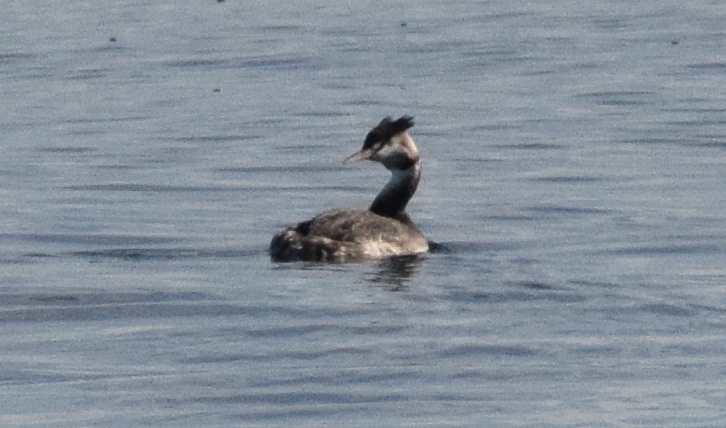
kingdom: Animalia
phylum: Chordata
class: Aves
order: Podicipediformes
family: Podicipedidae
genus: Podiceps
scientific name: Podiceps cristatus
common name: Great crested grebe
